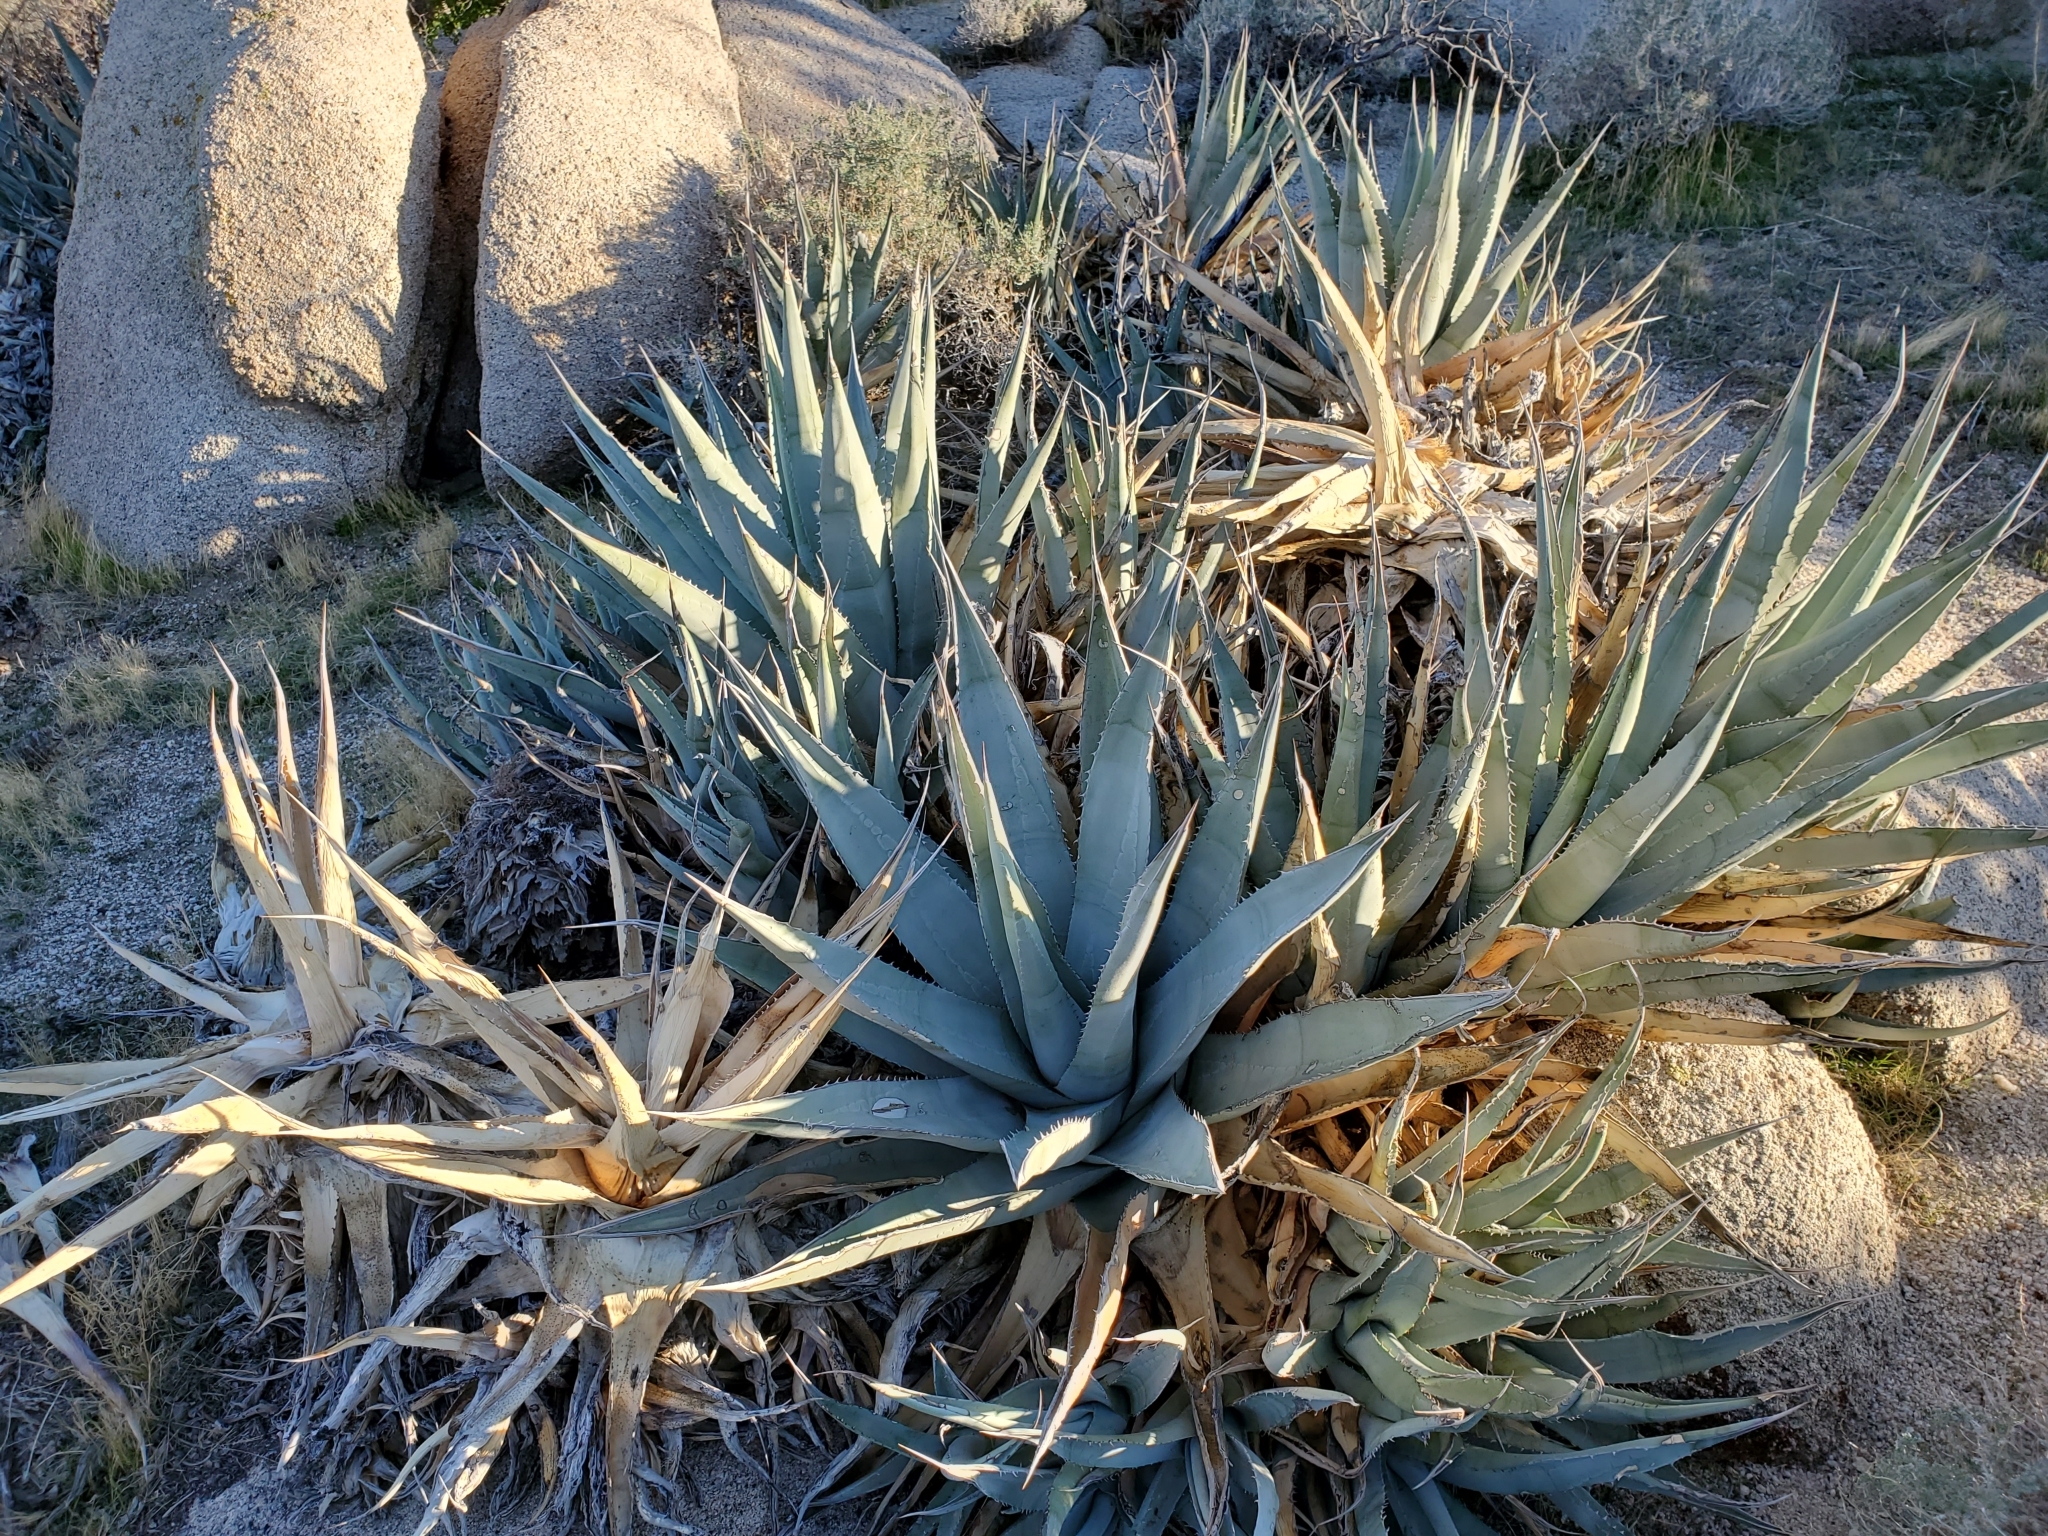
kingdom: Plantae
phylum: Tracheophyta
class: Liliopsida
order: Asparagales
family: Asparagaceae
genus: Agave
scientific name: Agave deserti
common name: Desert agave
